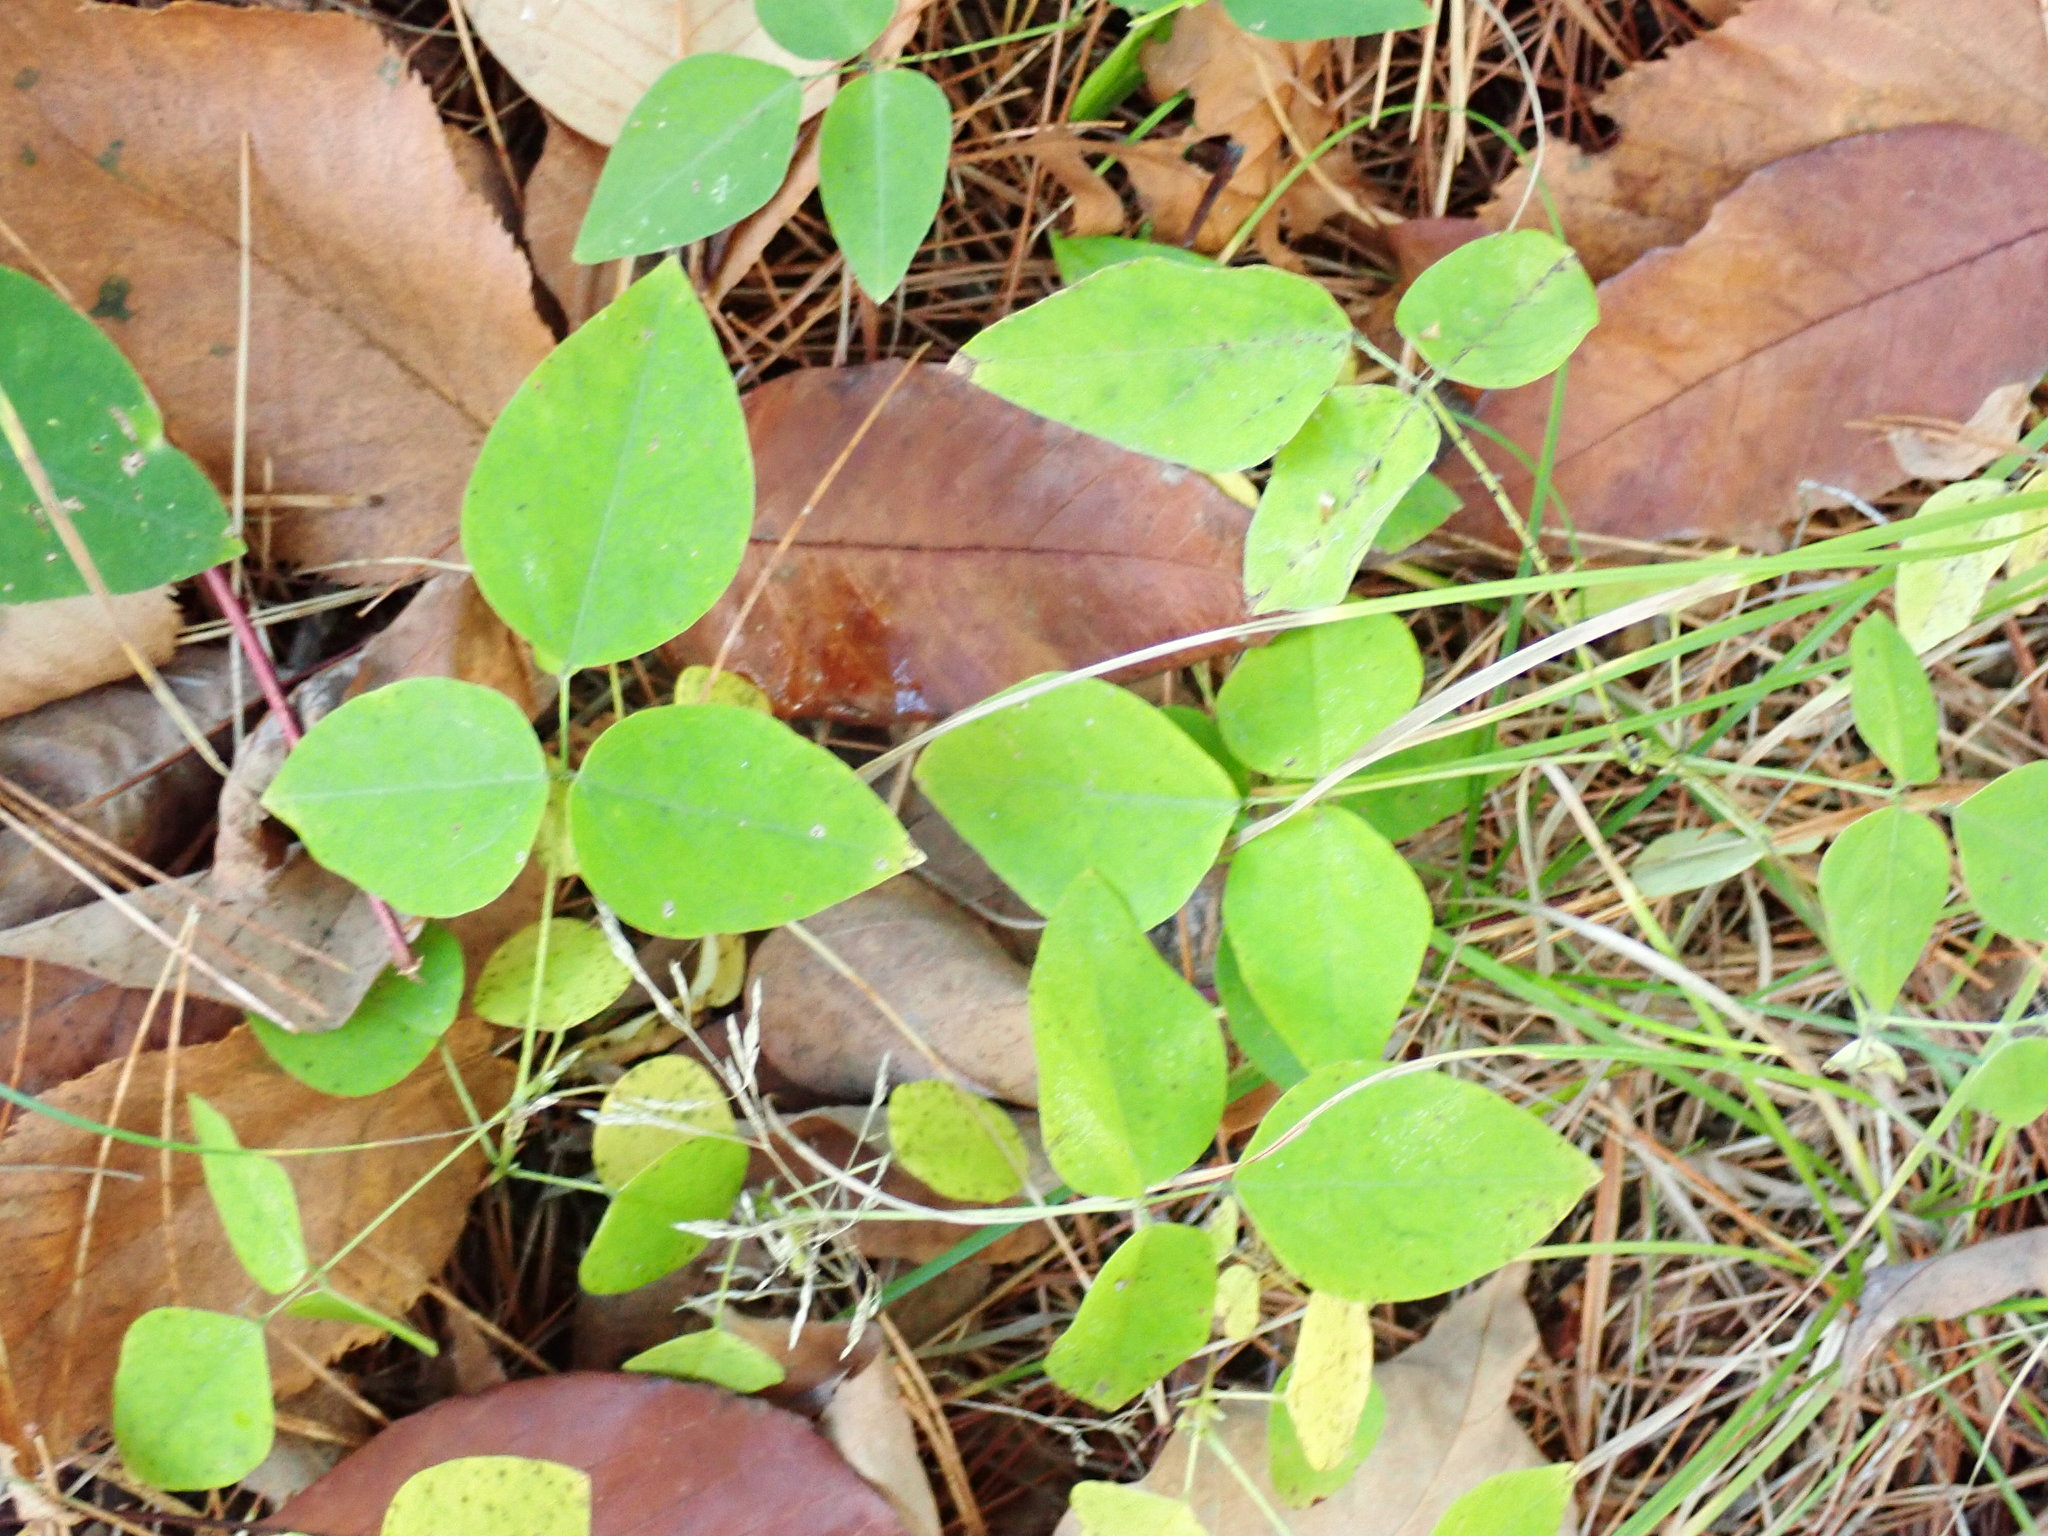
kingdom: Plantae
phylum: Tracheophyta
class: Magnoliopsida
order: Fabales
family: Fabaceae
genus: Amphicarpaea
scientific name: Amphicarpaea bracteata
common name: American hog peanut
